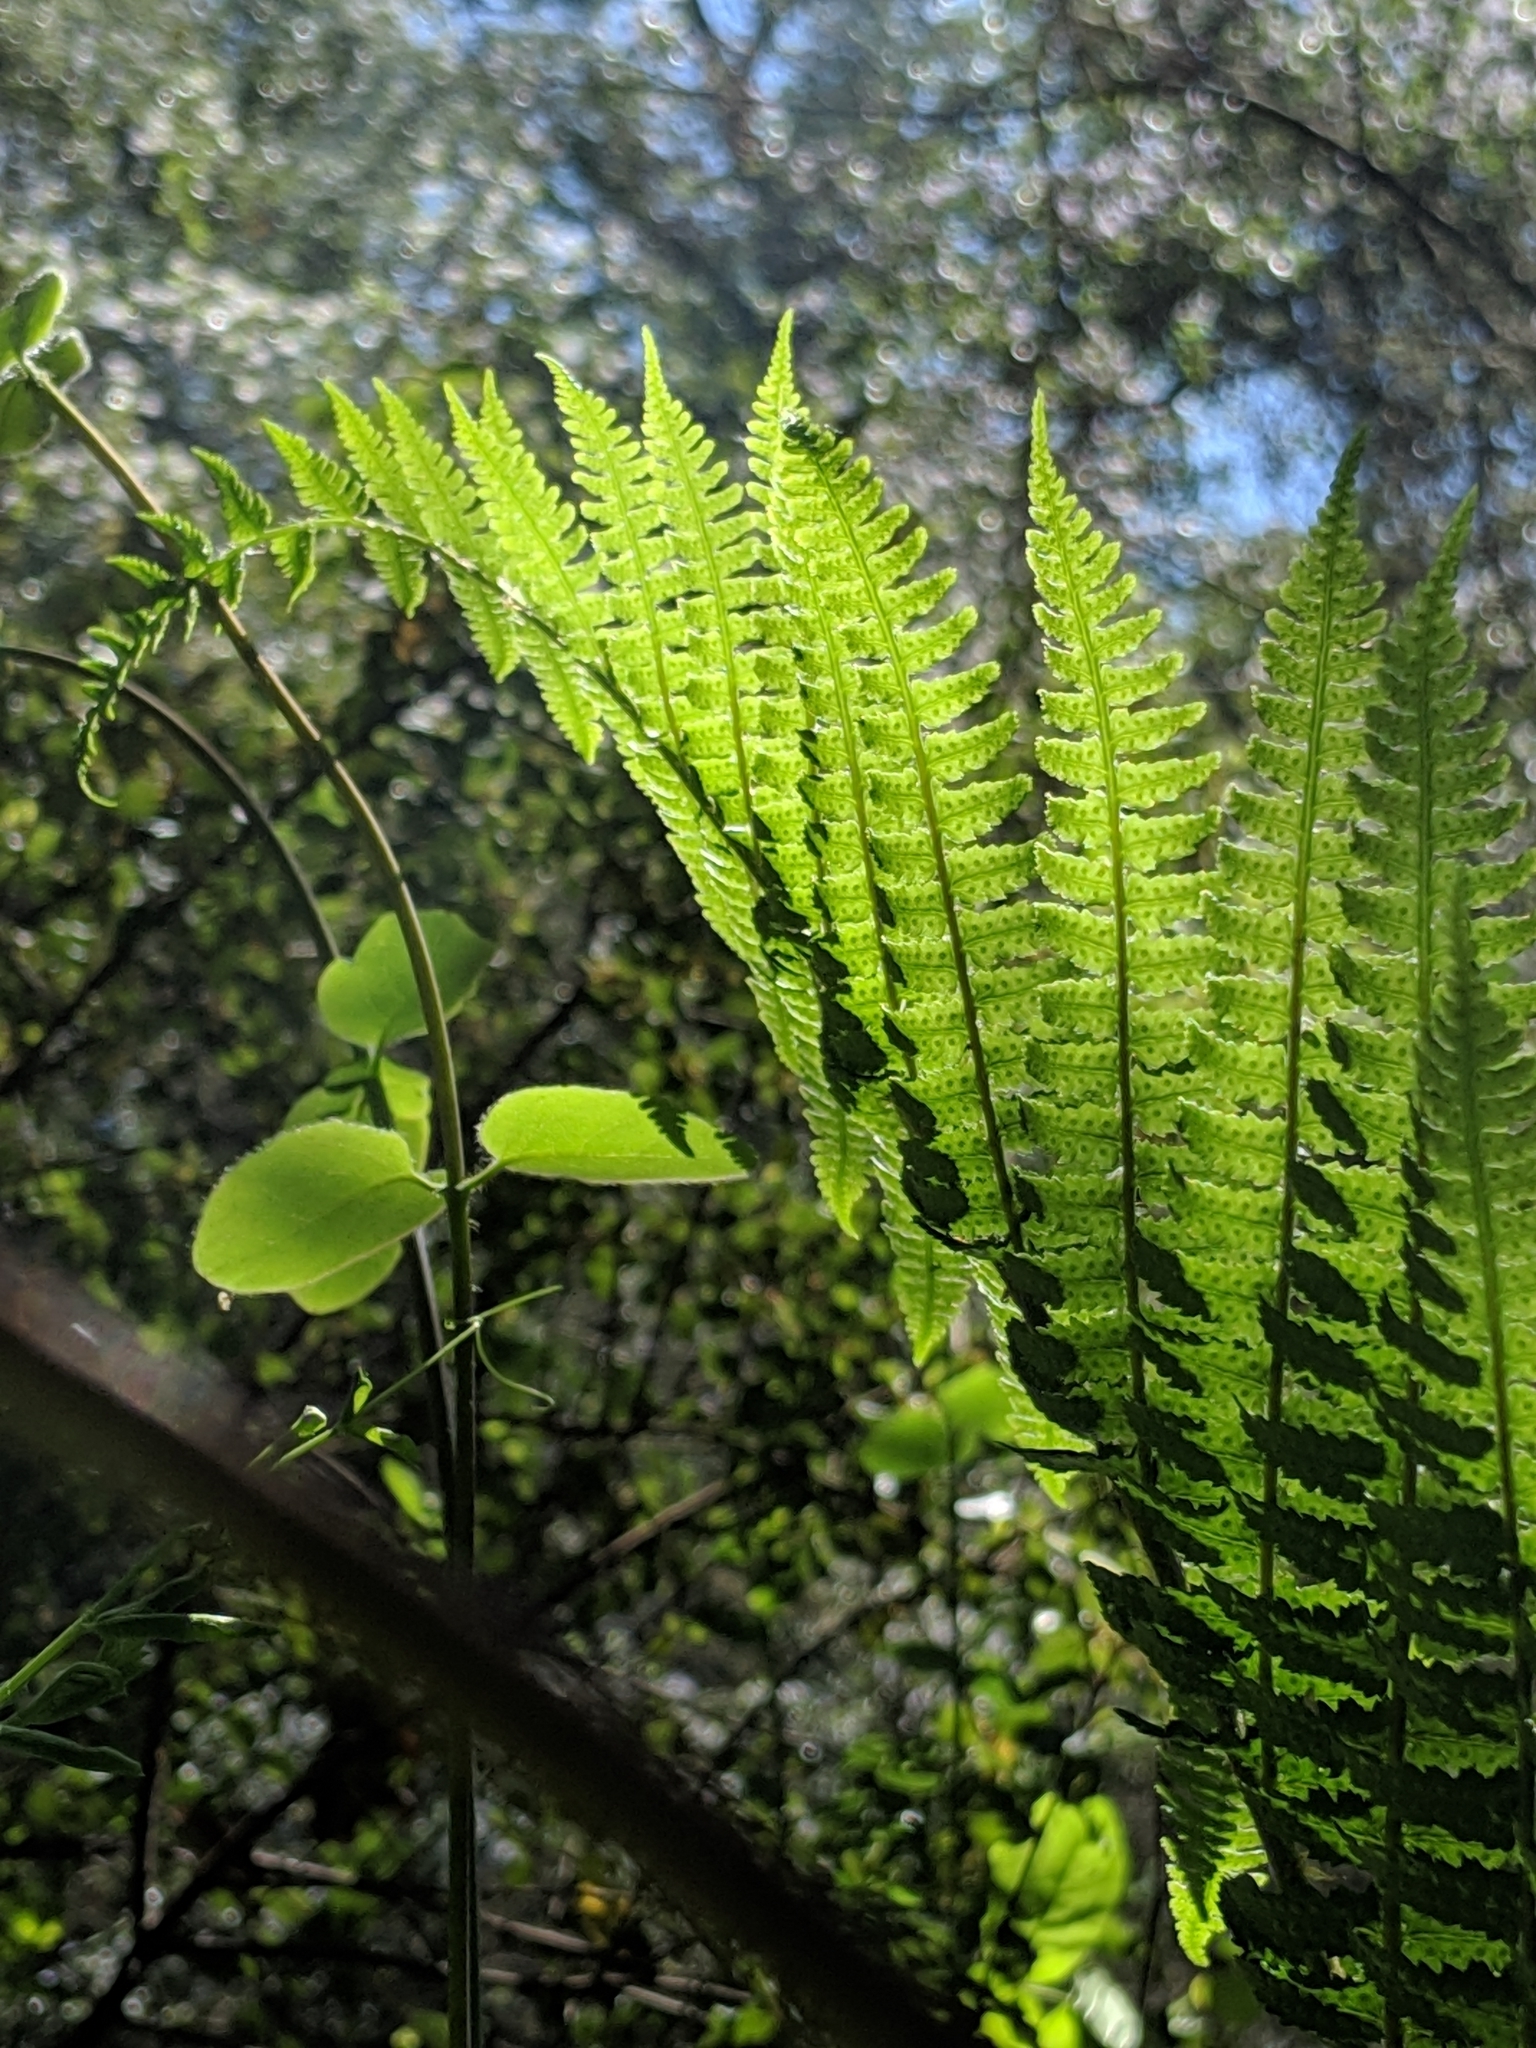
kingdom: Plantae
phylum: Tracheophyta
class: Polypodiopsida
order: Polypodiales
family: Dryopteridaceae
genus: Dryopteris
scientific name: Dryopteris arguta
